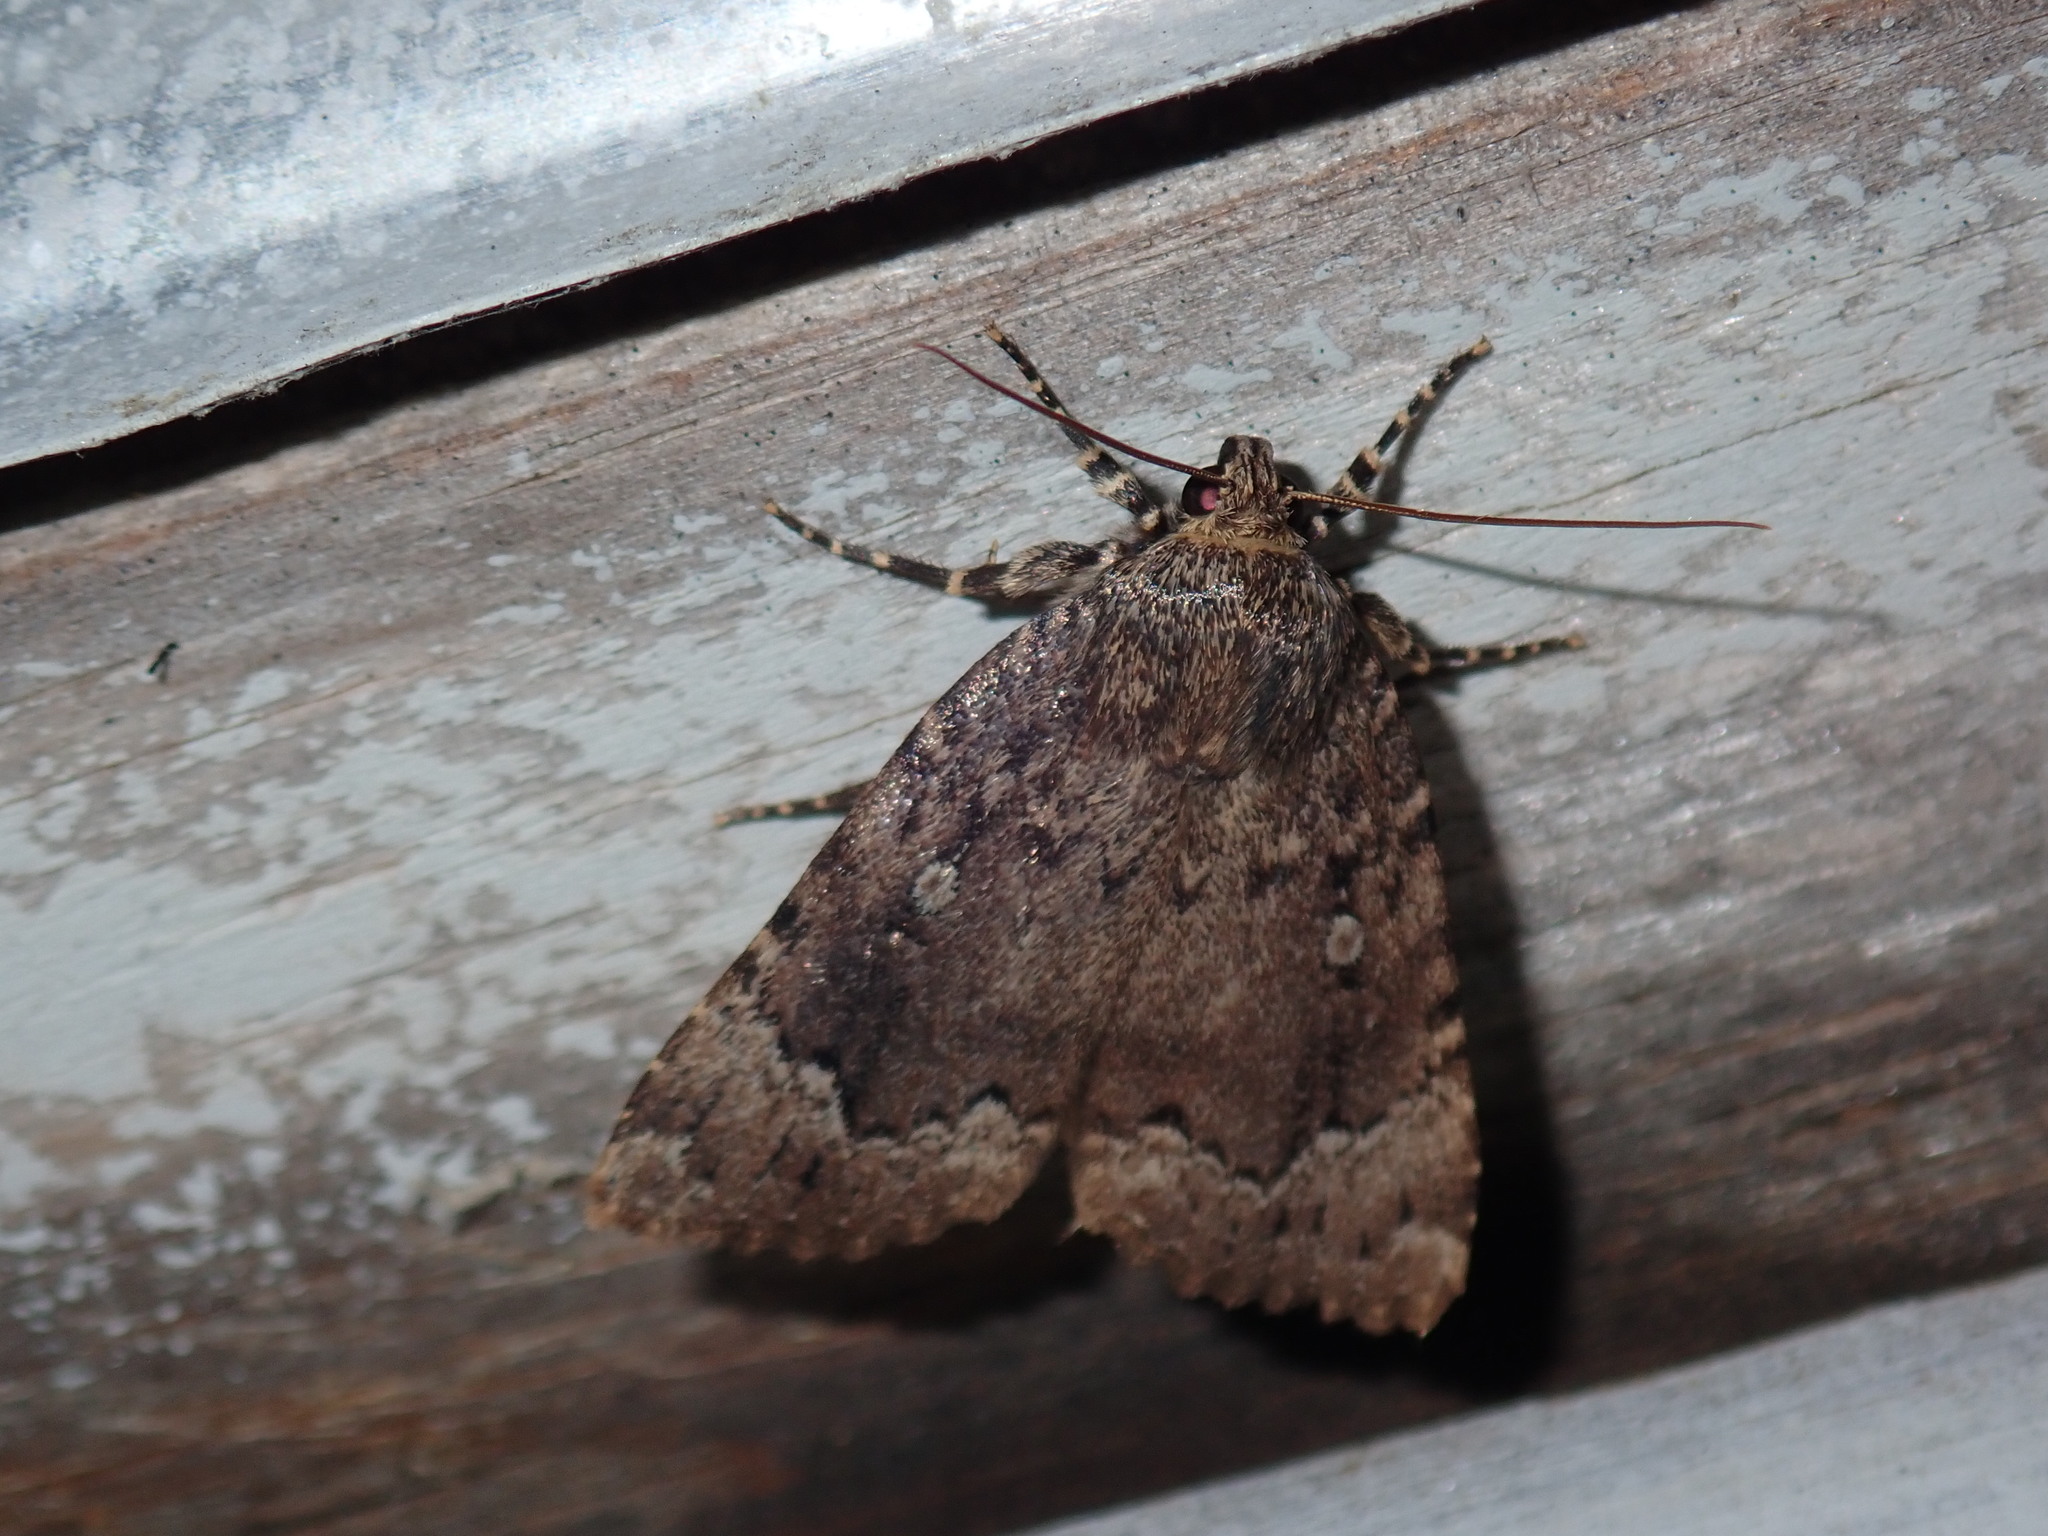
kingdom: Animalia
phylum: Arthropoda
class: Insecta
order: Lepidoptera
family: Noctuidae
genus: Amphipyra
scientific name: Amphipyra pyramidoides
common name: American copper underwing
